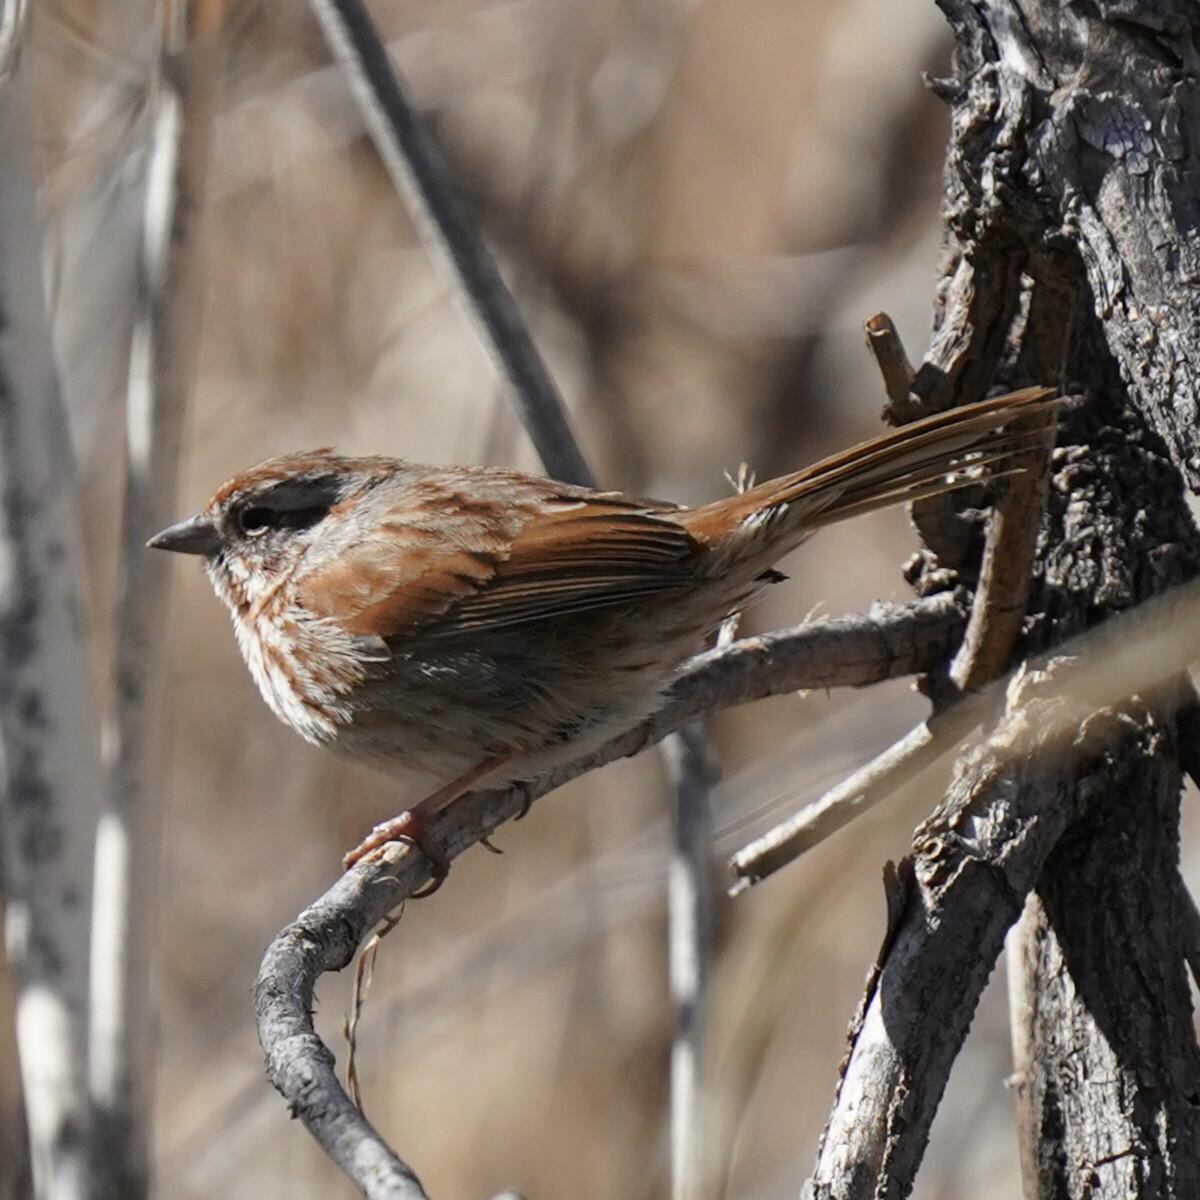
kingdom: Animalia
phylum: Chordata
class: Aves
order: Passeriformes
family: Passerellidae
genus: Melospiza
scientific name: Melospiza melodia
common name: Song sparrow
